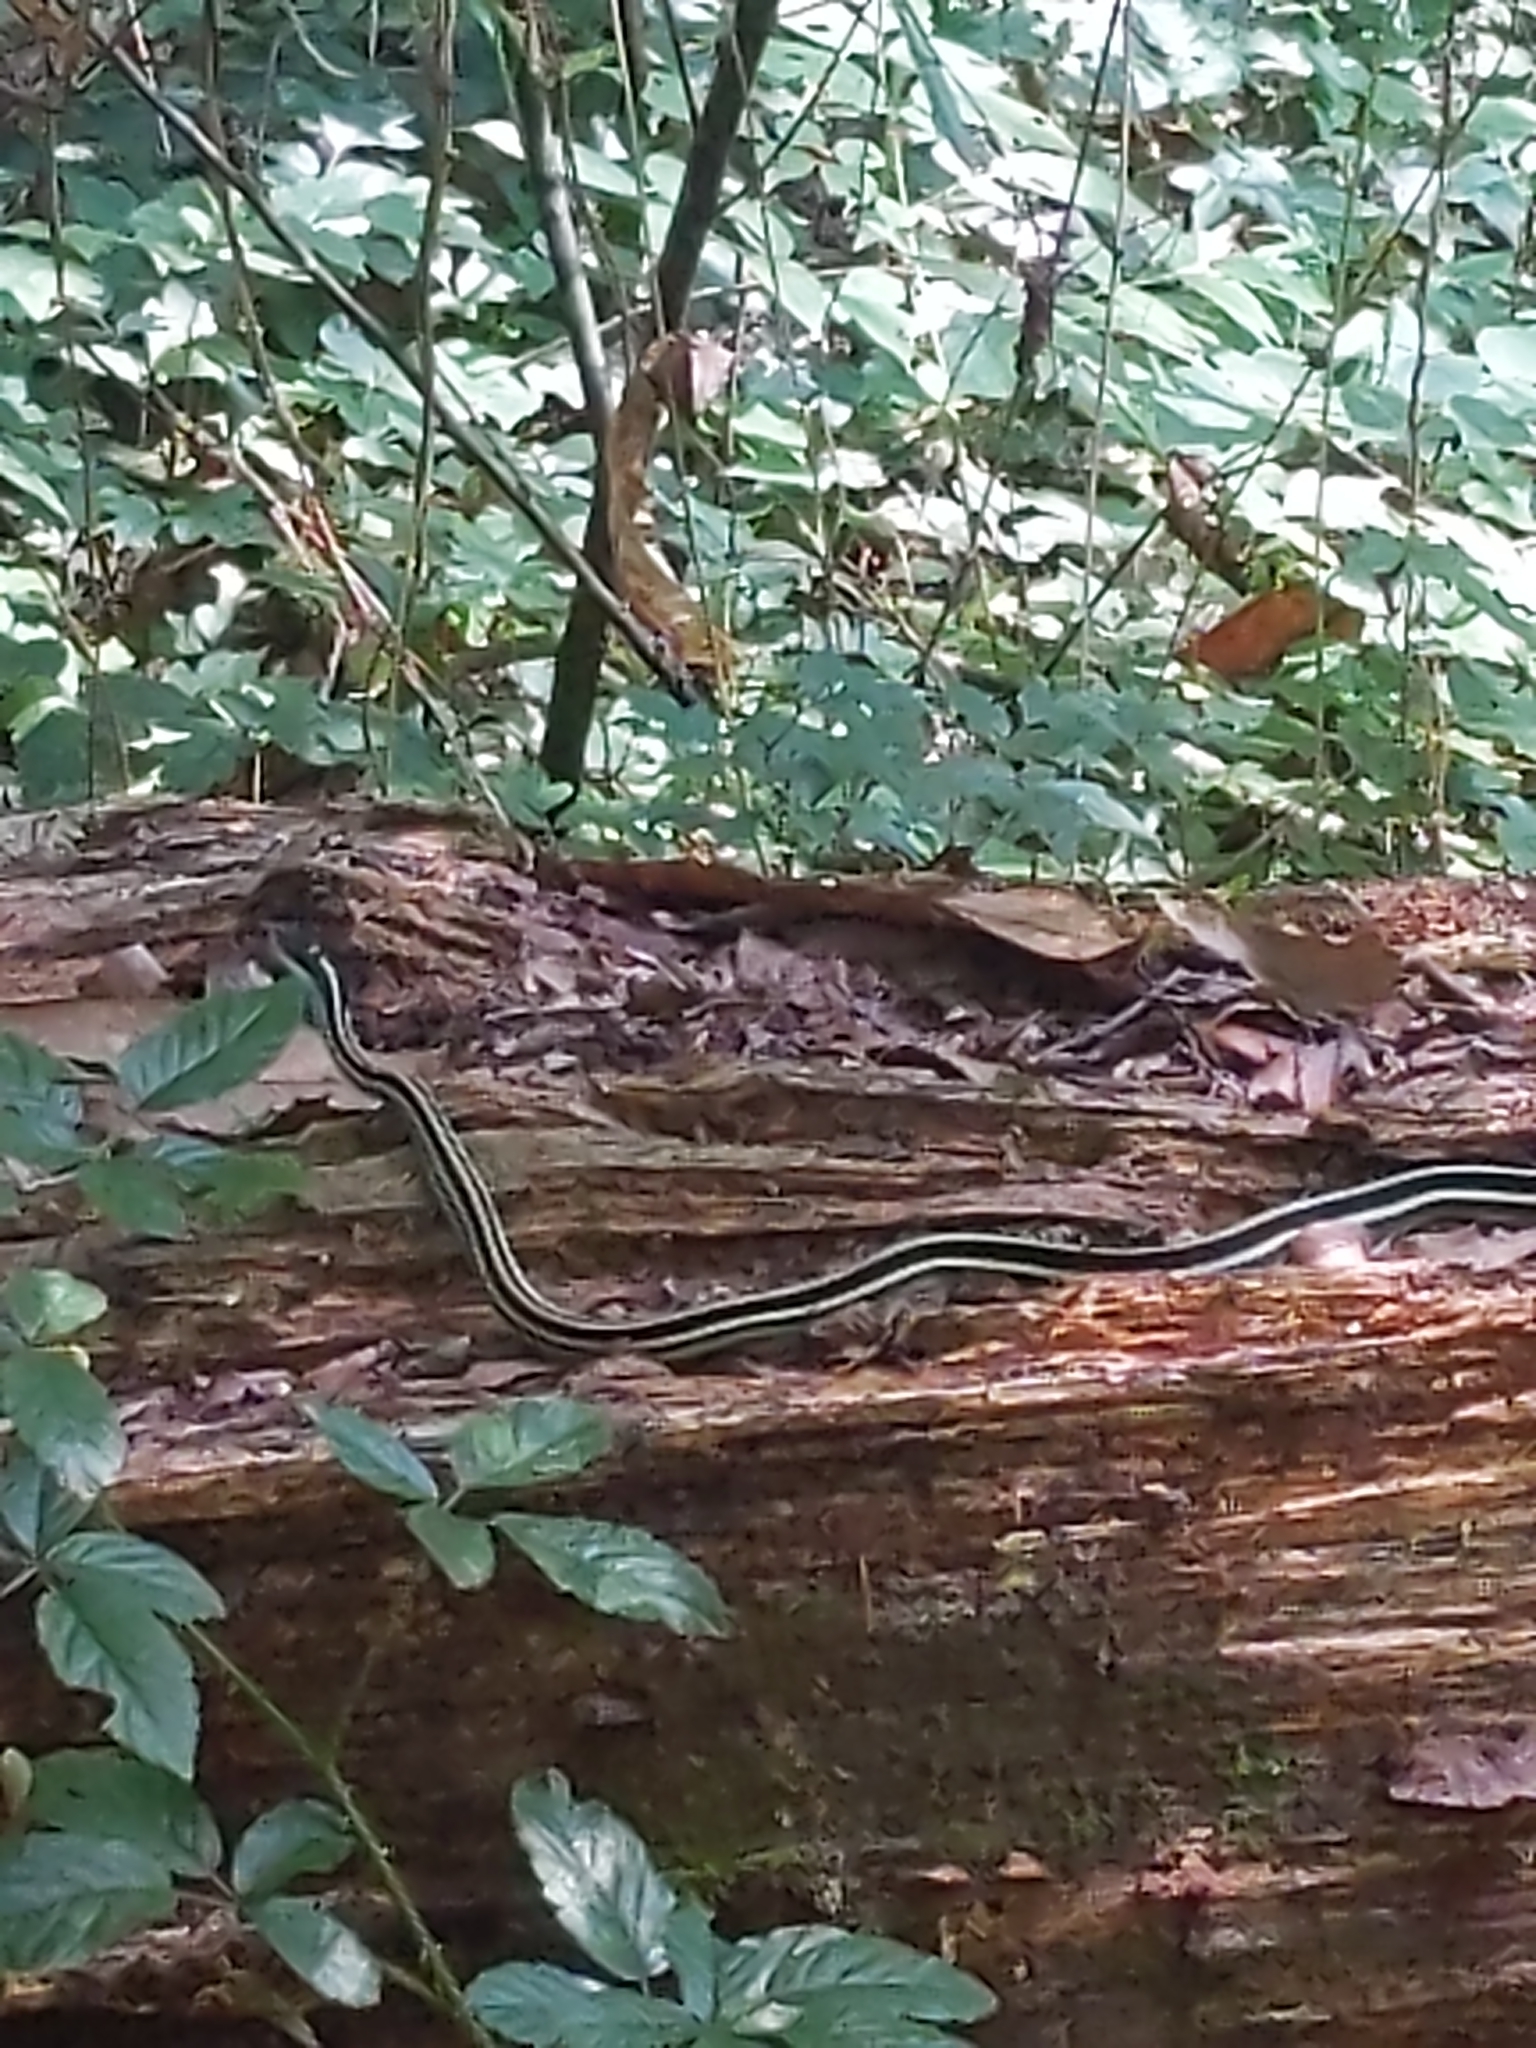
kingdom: Animalia
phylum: Chordata
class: Squamata
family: Colubridae
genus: Thamnophis
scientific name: Thamnophis proximus
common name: Western ribbon snake
